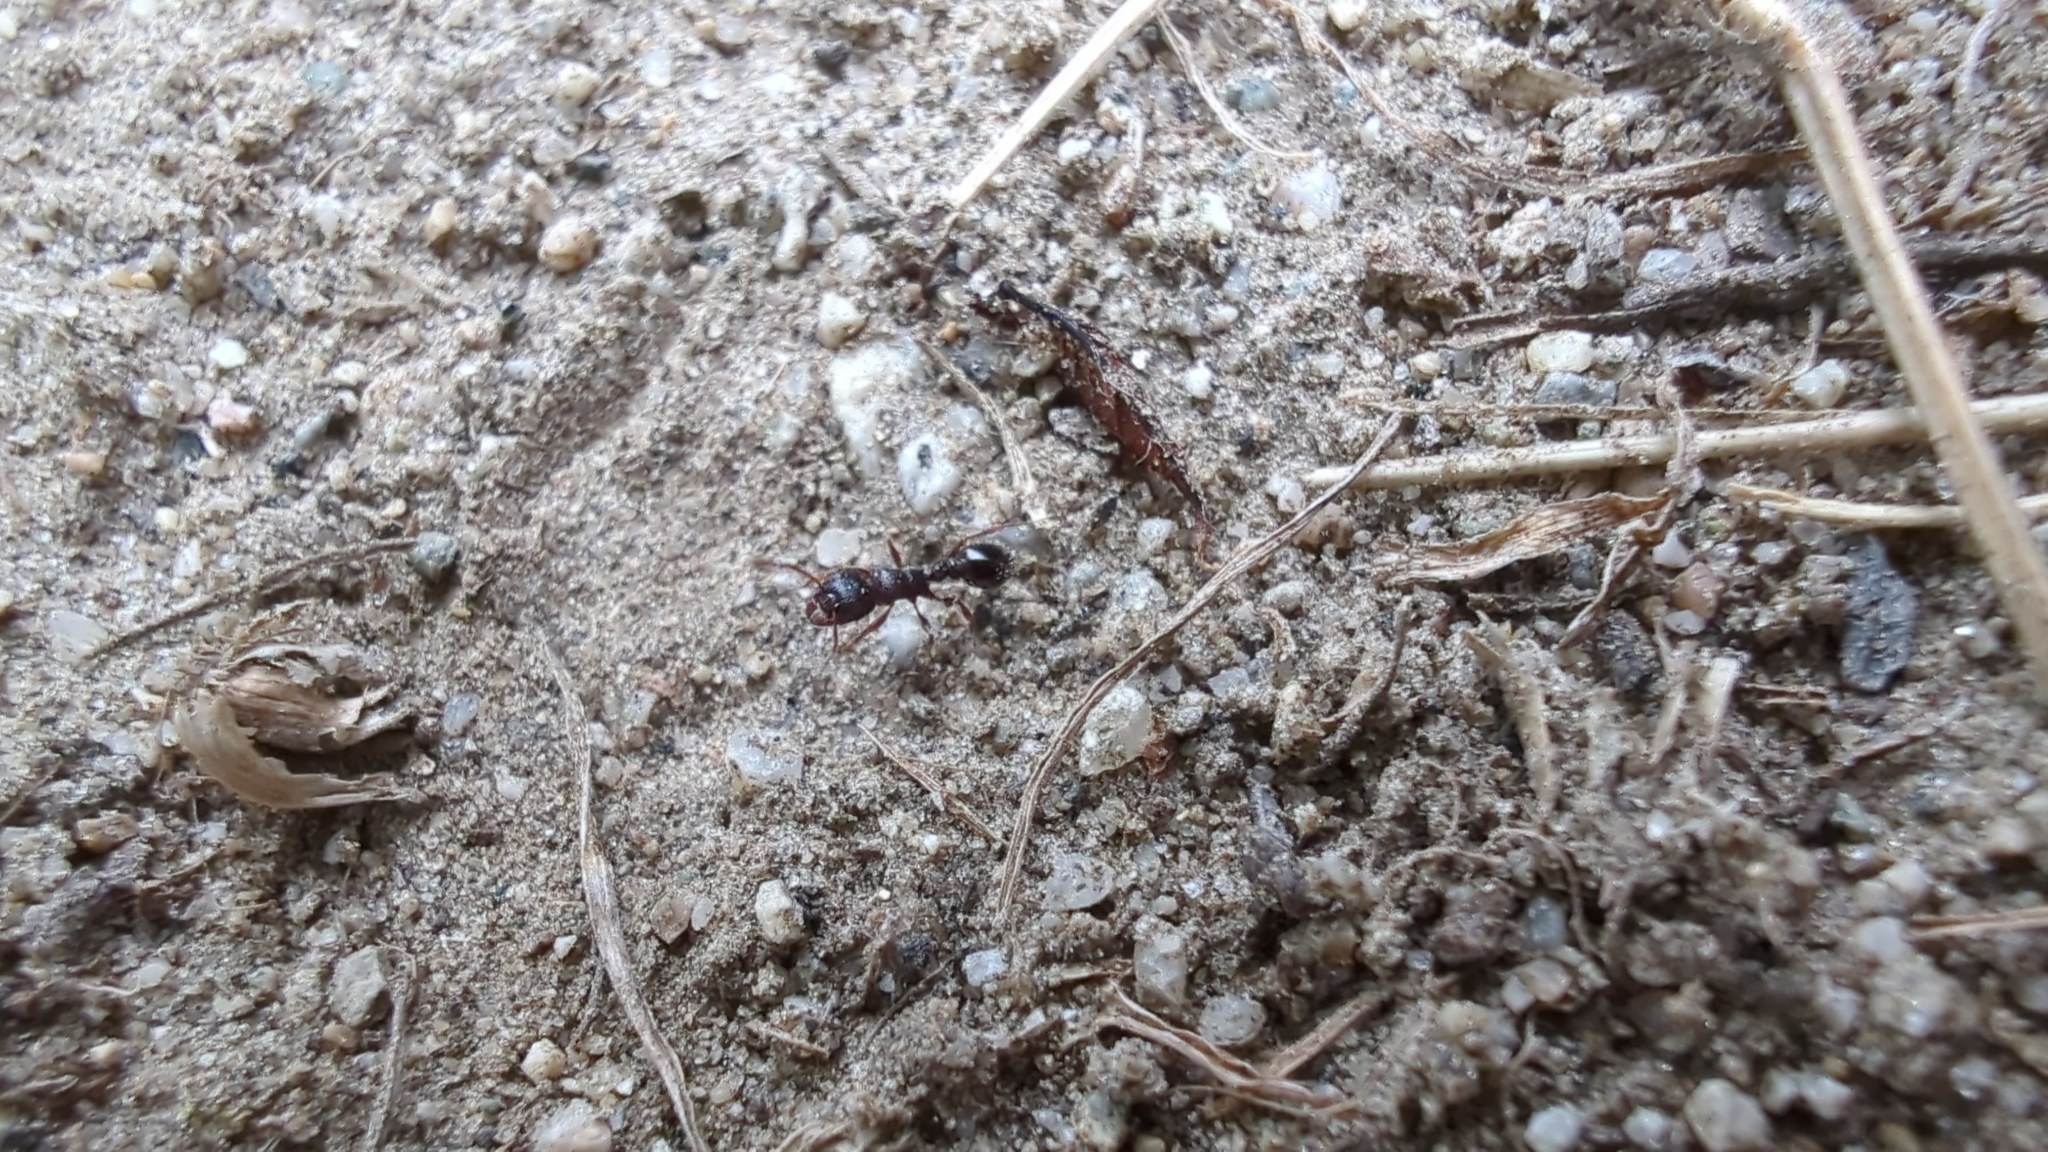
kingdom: Animalia
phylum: Arthropoda
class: Insecta
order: Hymenoptera
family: Formicidae
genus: Tetramorium
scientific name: Tetramorium immigrans
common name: Pavement ant
